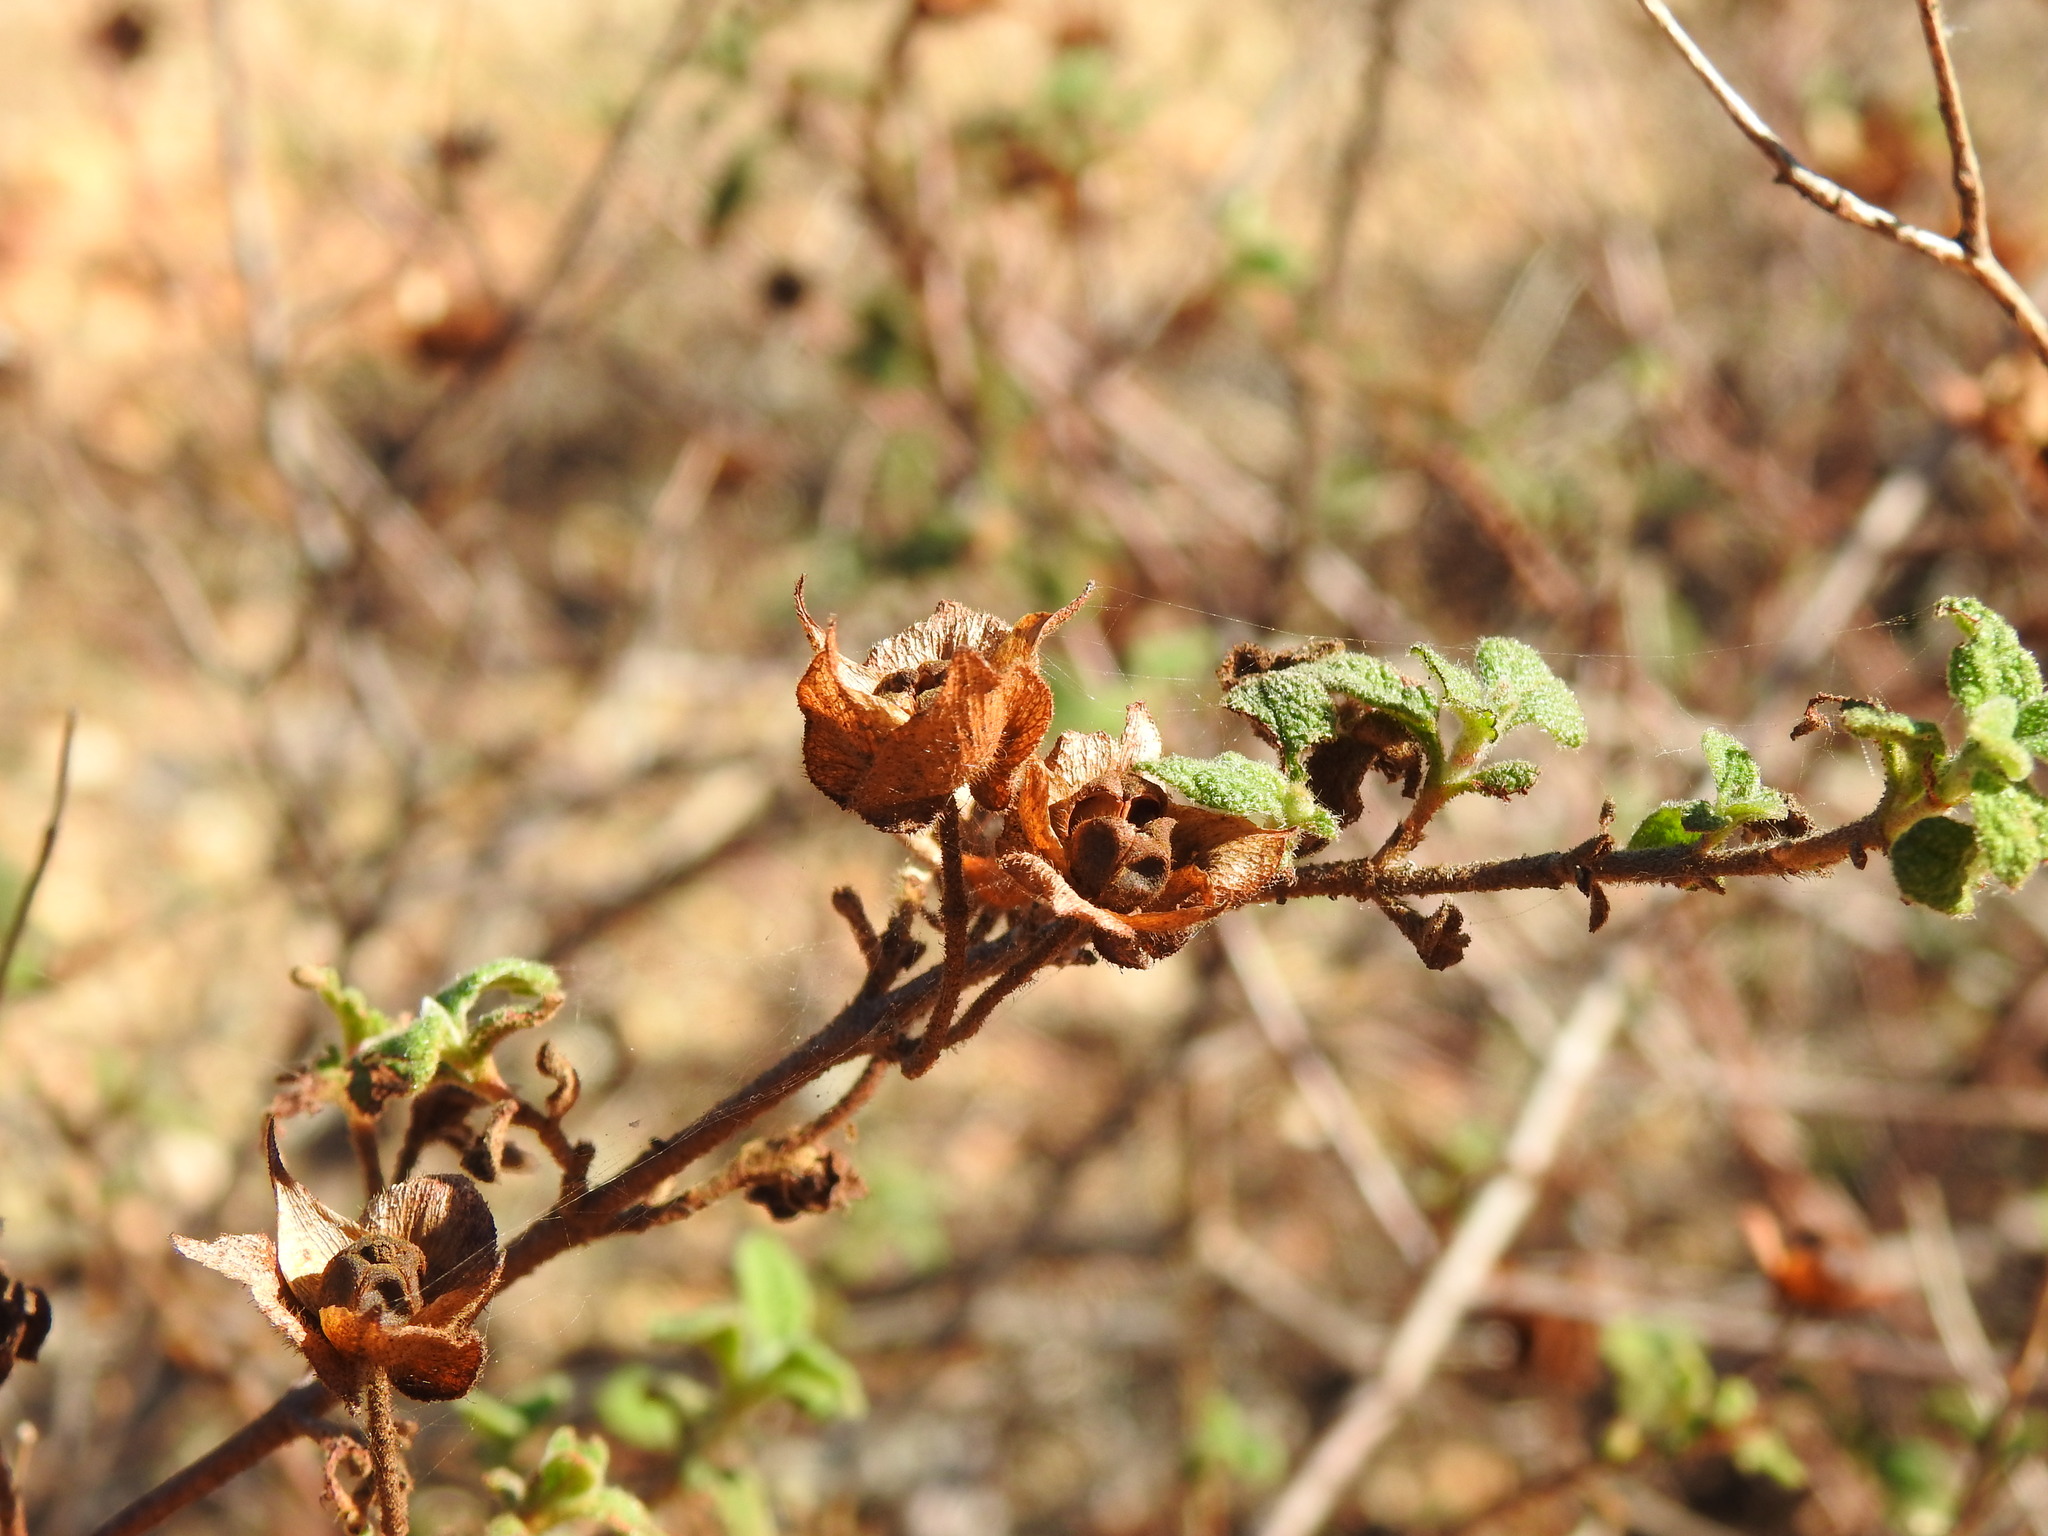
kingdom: Plantae
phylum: Tracheophyta
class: Magnoliopsida
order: Malvales
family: Cistaceae
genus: Cistus
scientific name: Cistus salviifolius
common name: Salvia cistus
